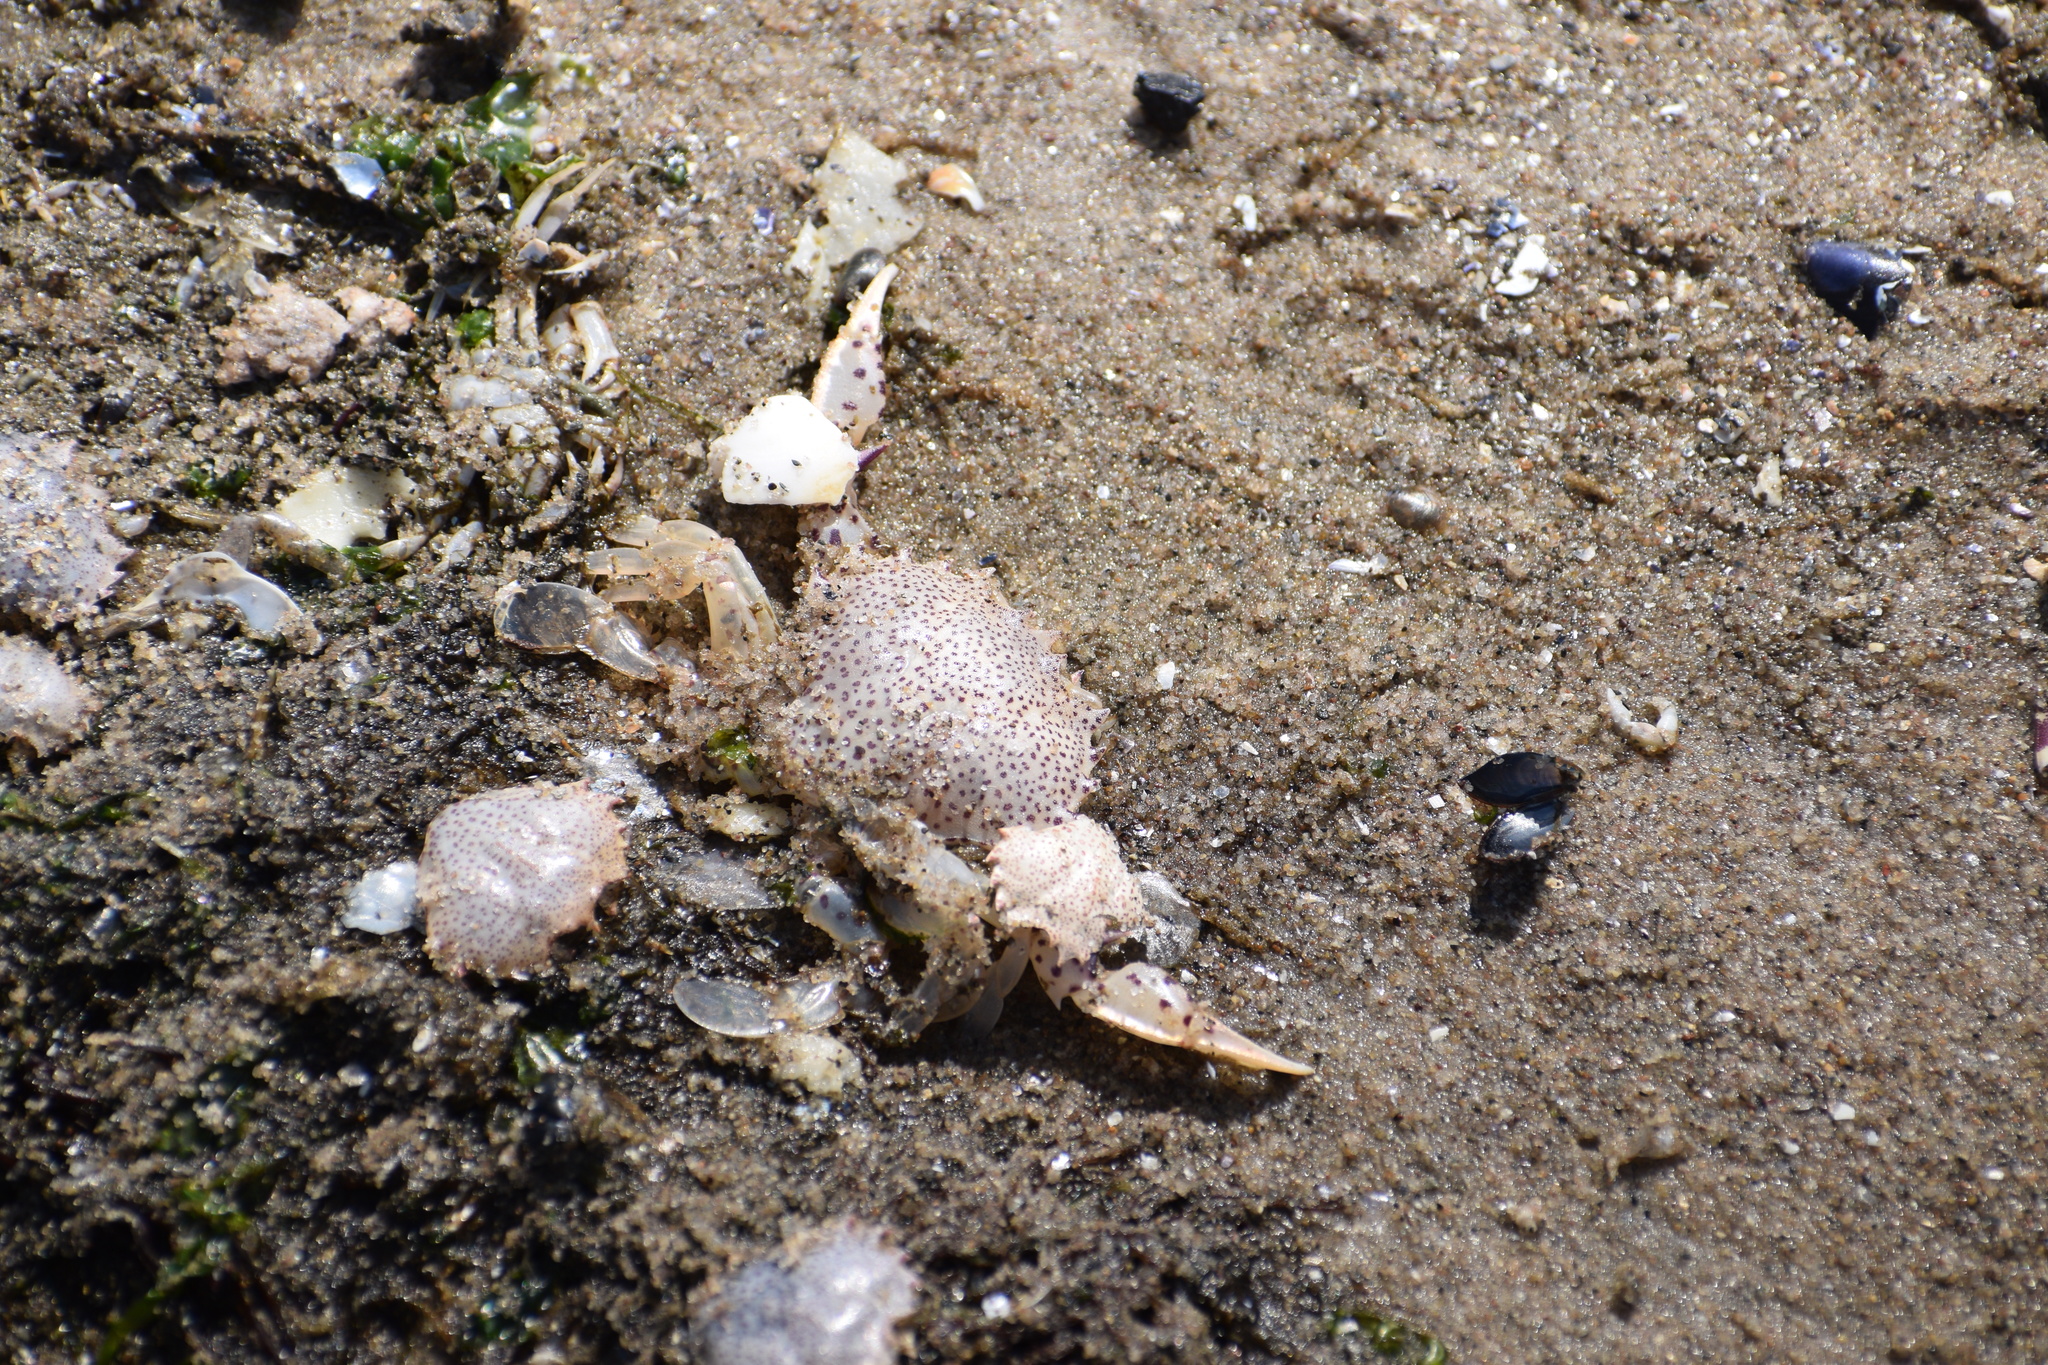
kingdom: Animalia
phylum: Arthropoda
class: Malacostraca
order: Decapoda
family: Ovalipidae
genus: Ovalipes
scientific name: Ovalipes ocellatus
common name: Lady crab
